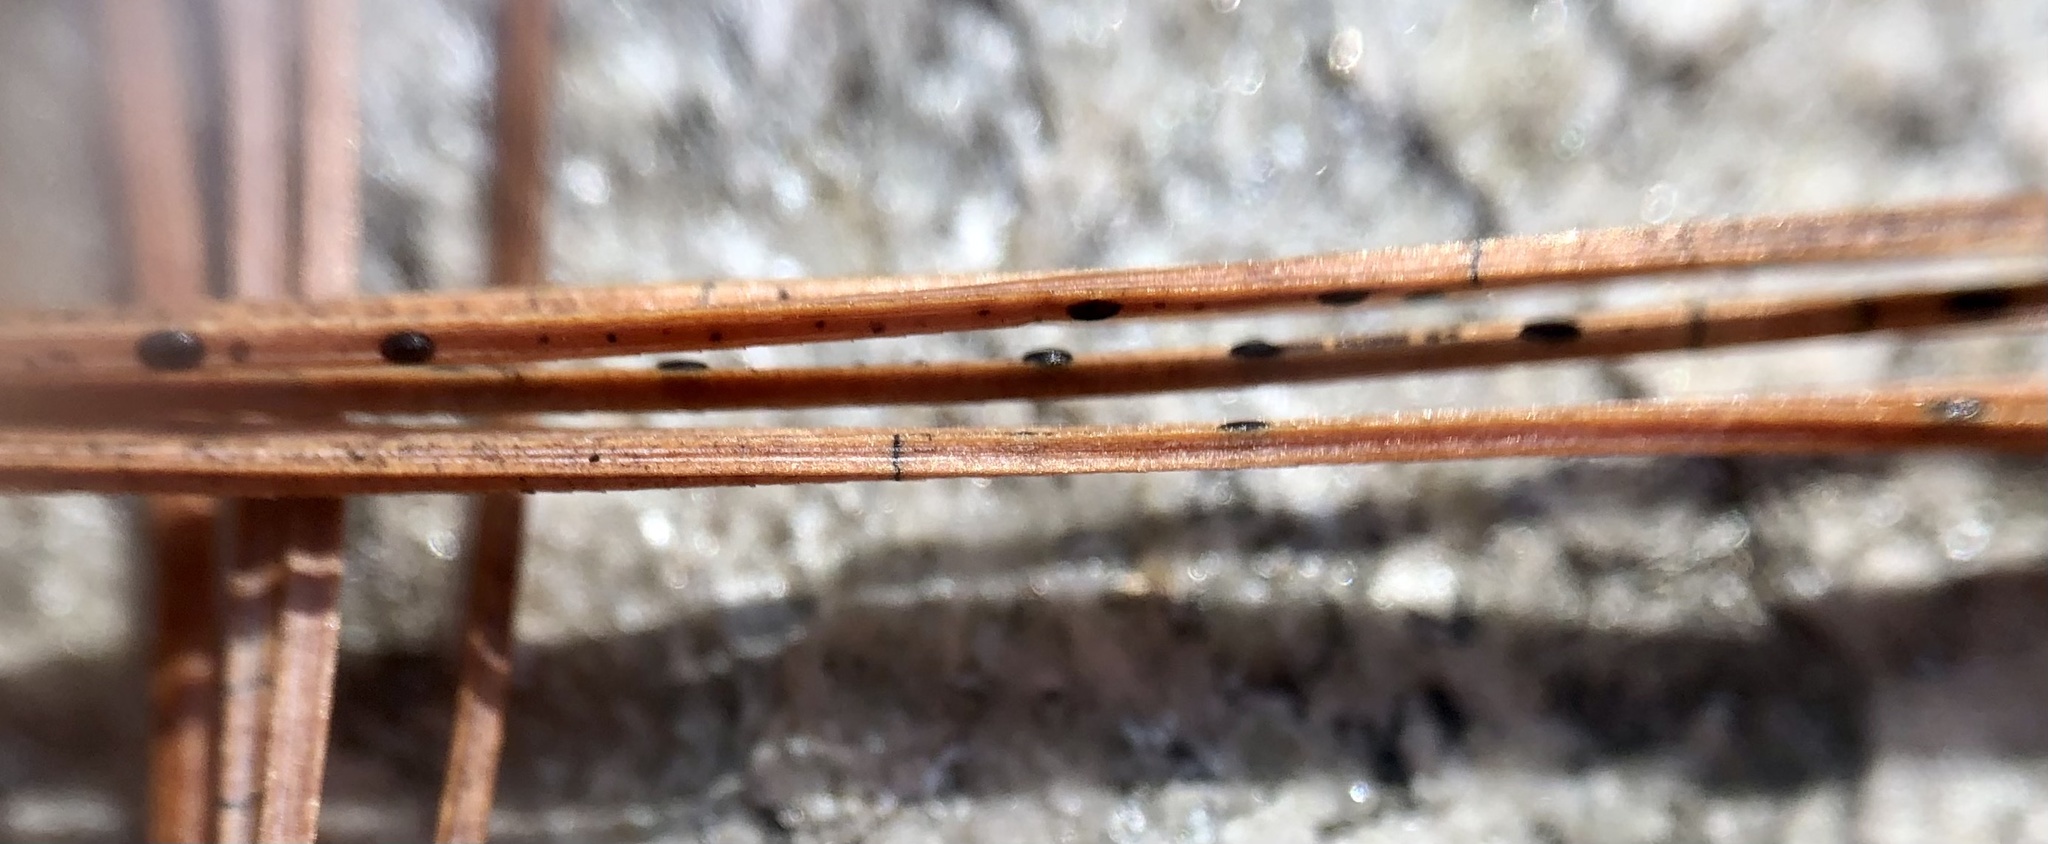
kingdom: Fungi
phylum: Ascomycota
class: Leotiomycetes
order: Rhytismatales
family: Rhytismataceae
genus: Lophodermium
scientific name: Lophodermium nitens
